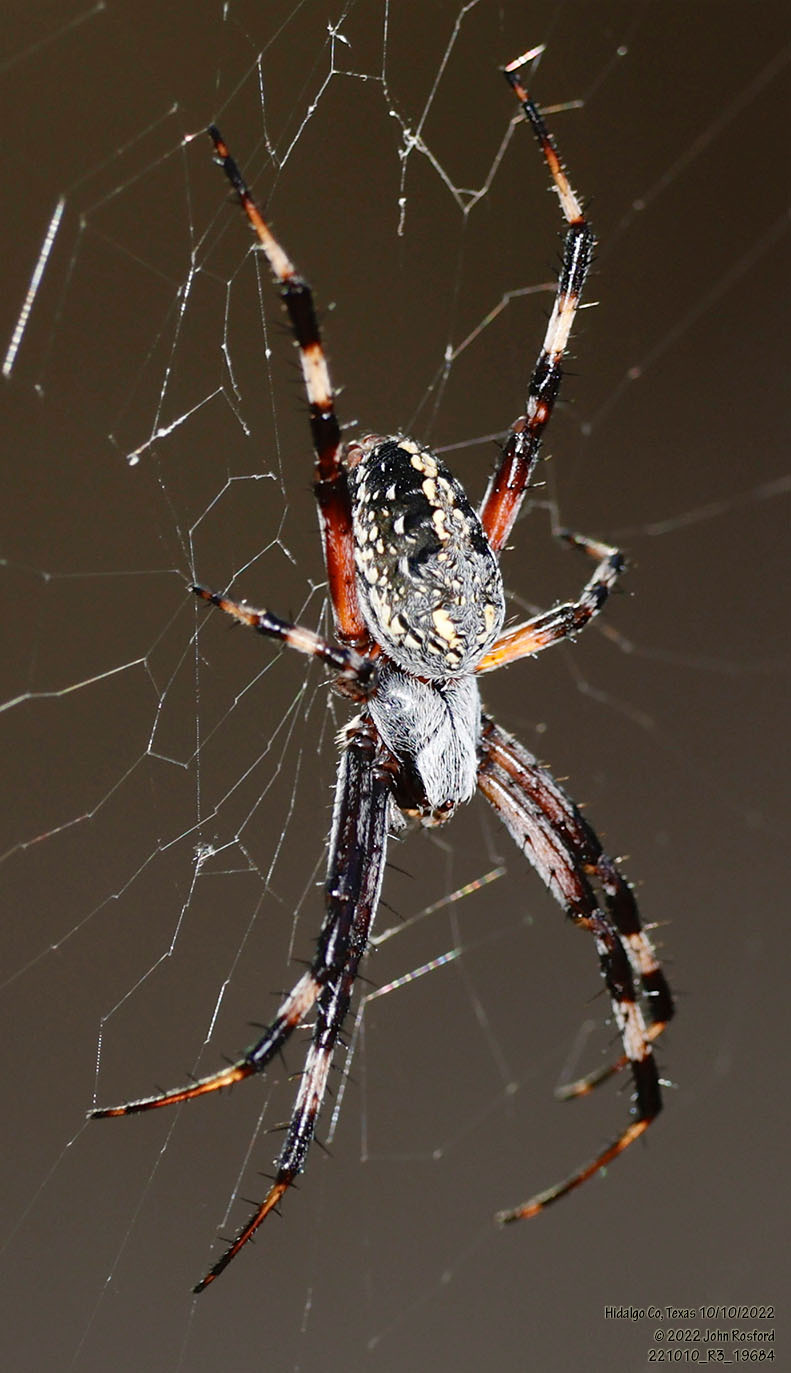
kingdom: Animalia
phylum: Arthropoda
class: Arachnida
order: Araneae
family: Araneidae
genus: Neoscona
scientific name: Neoscona oaxacensis
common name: Orb weavers
